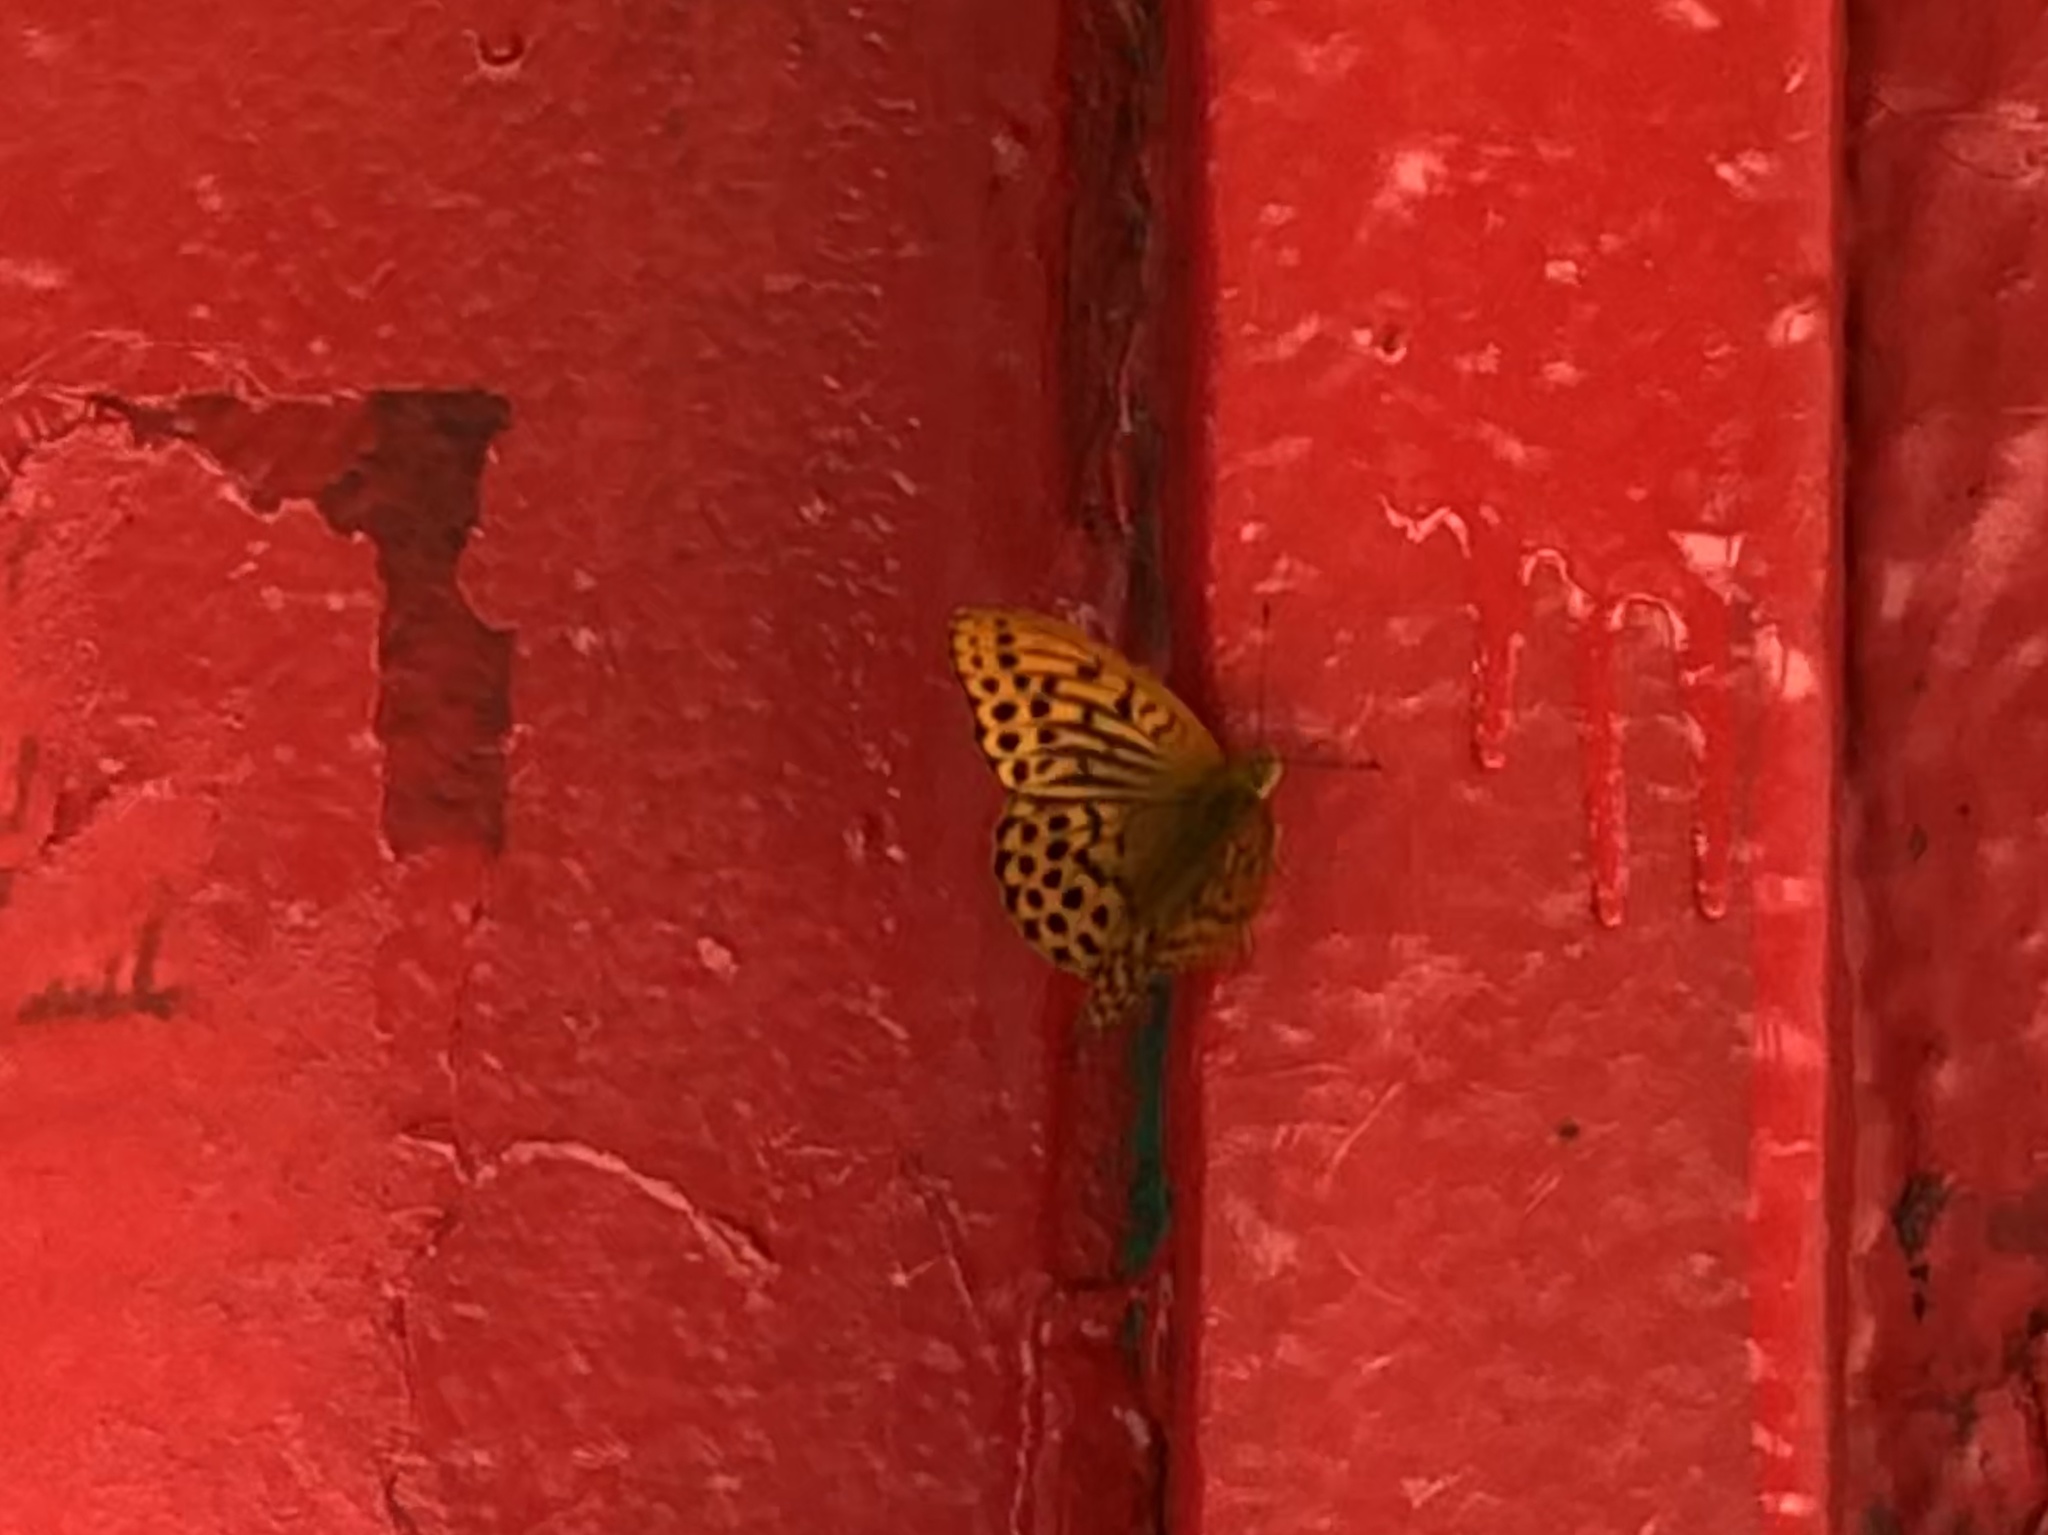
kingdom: Animalia
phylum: Arthropoda
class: Insecta
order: Lepidoptera
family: Nymphalidae
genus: Argynnis
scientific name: Argynnis paphia
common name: Silver-washed fritillary
